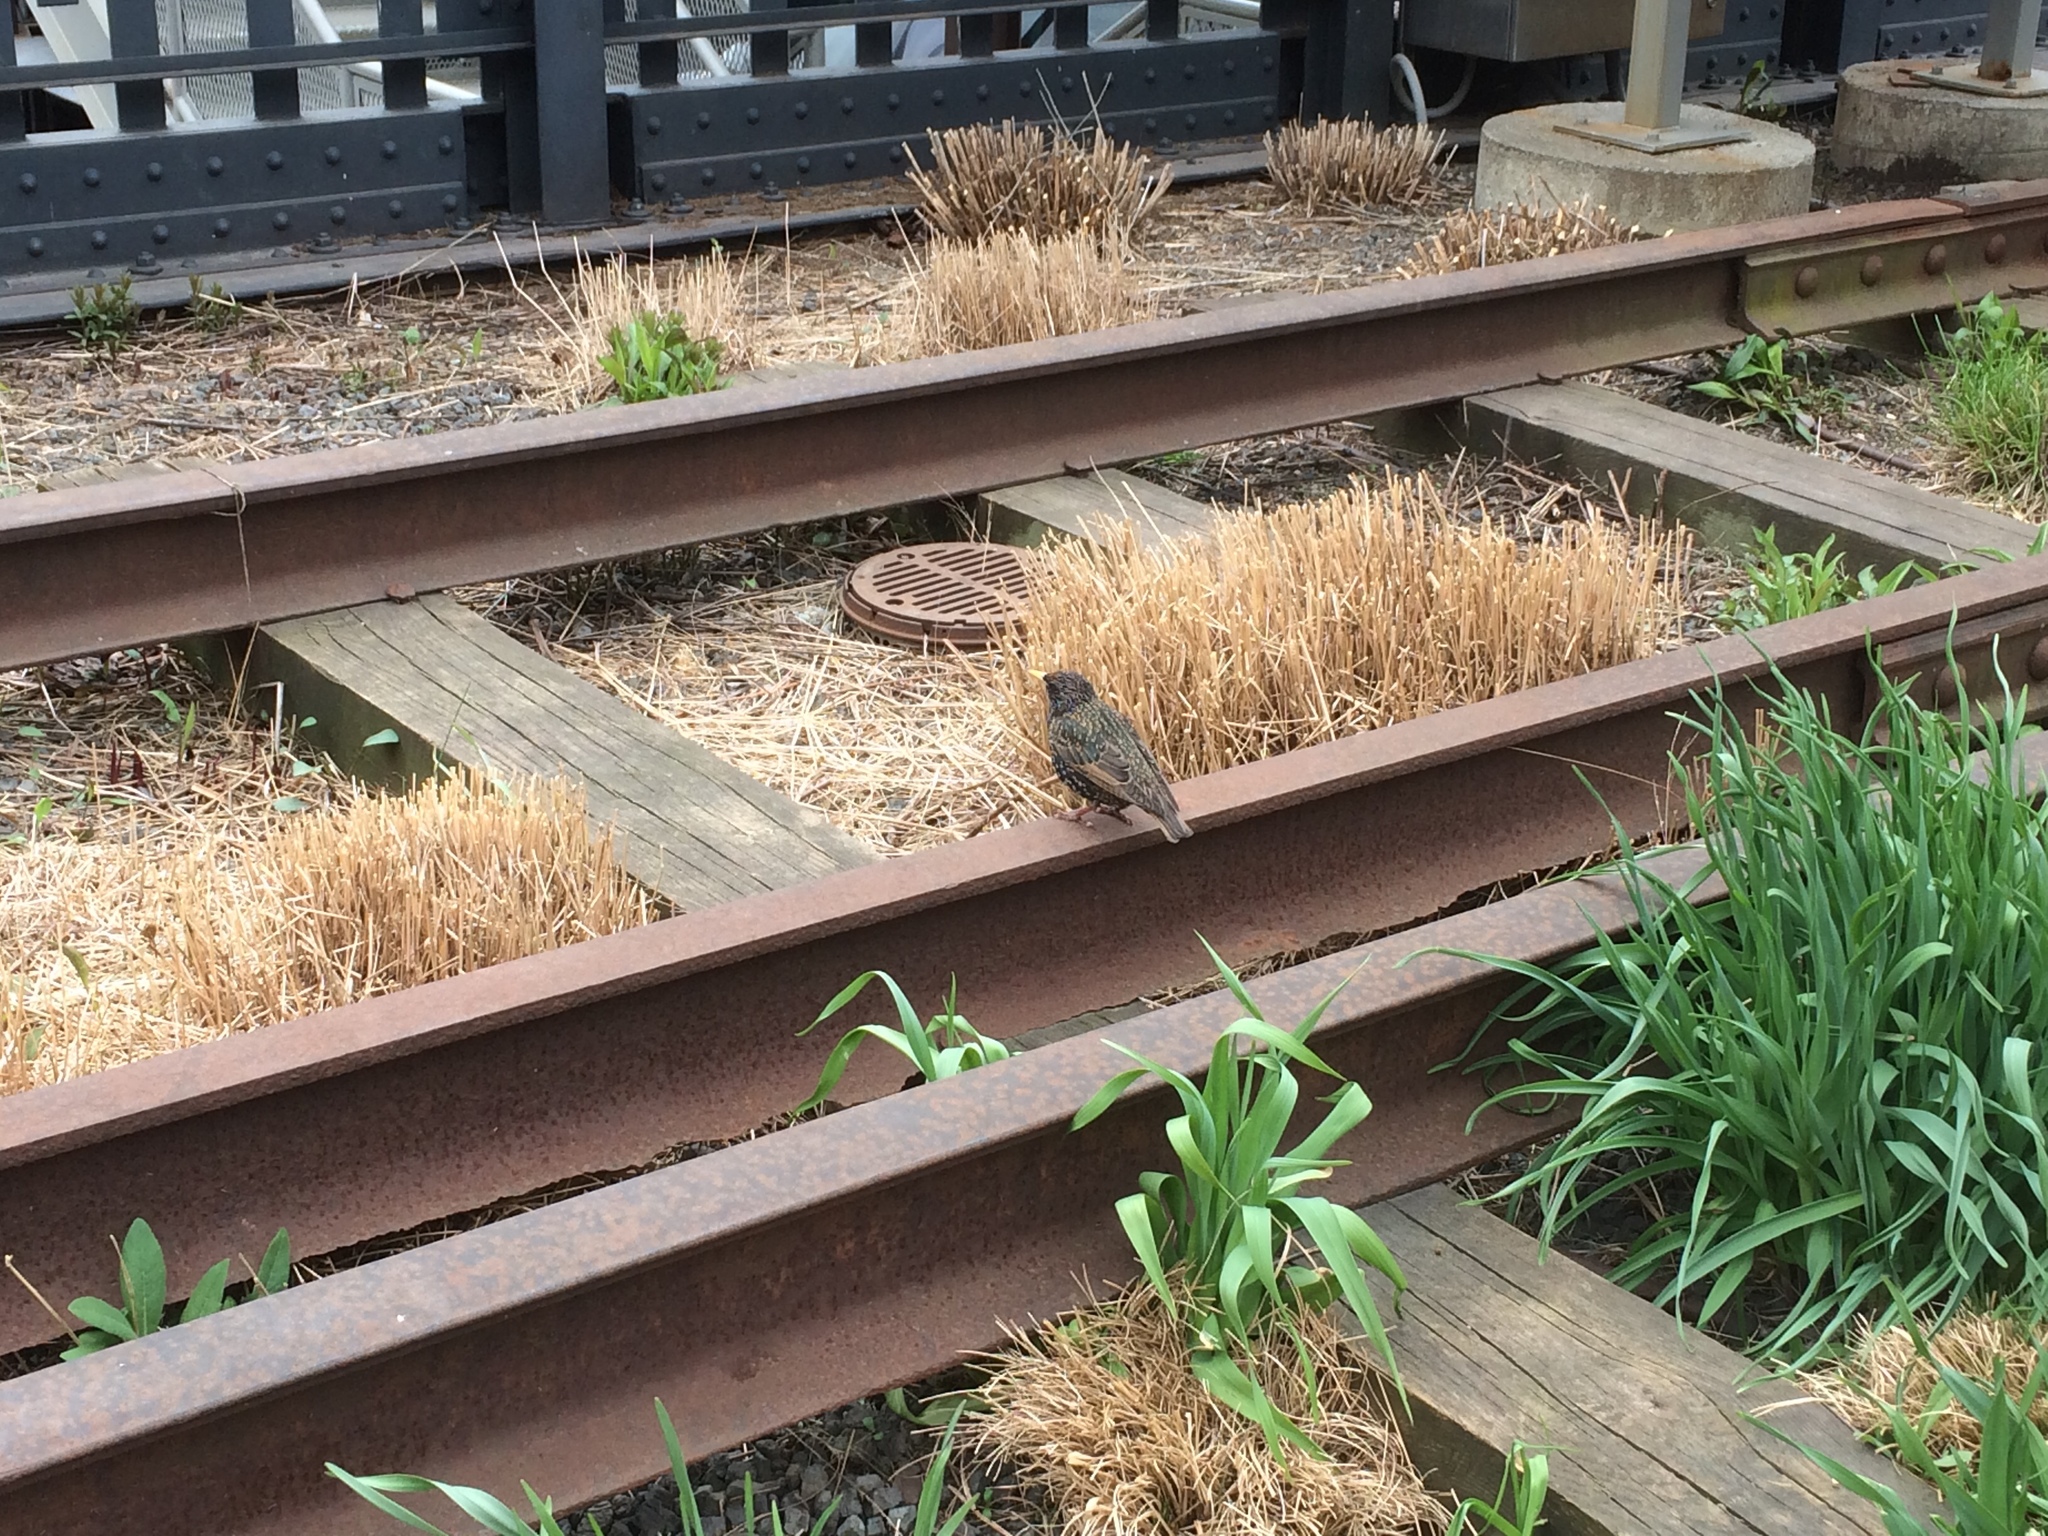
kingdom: Animalia
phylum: Chordata
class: Aves
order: Passeriformes
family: Sturnidae
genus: Sturnus
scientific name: Sturnus vulgaris
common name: Common starling
